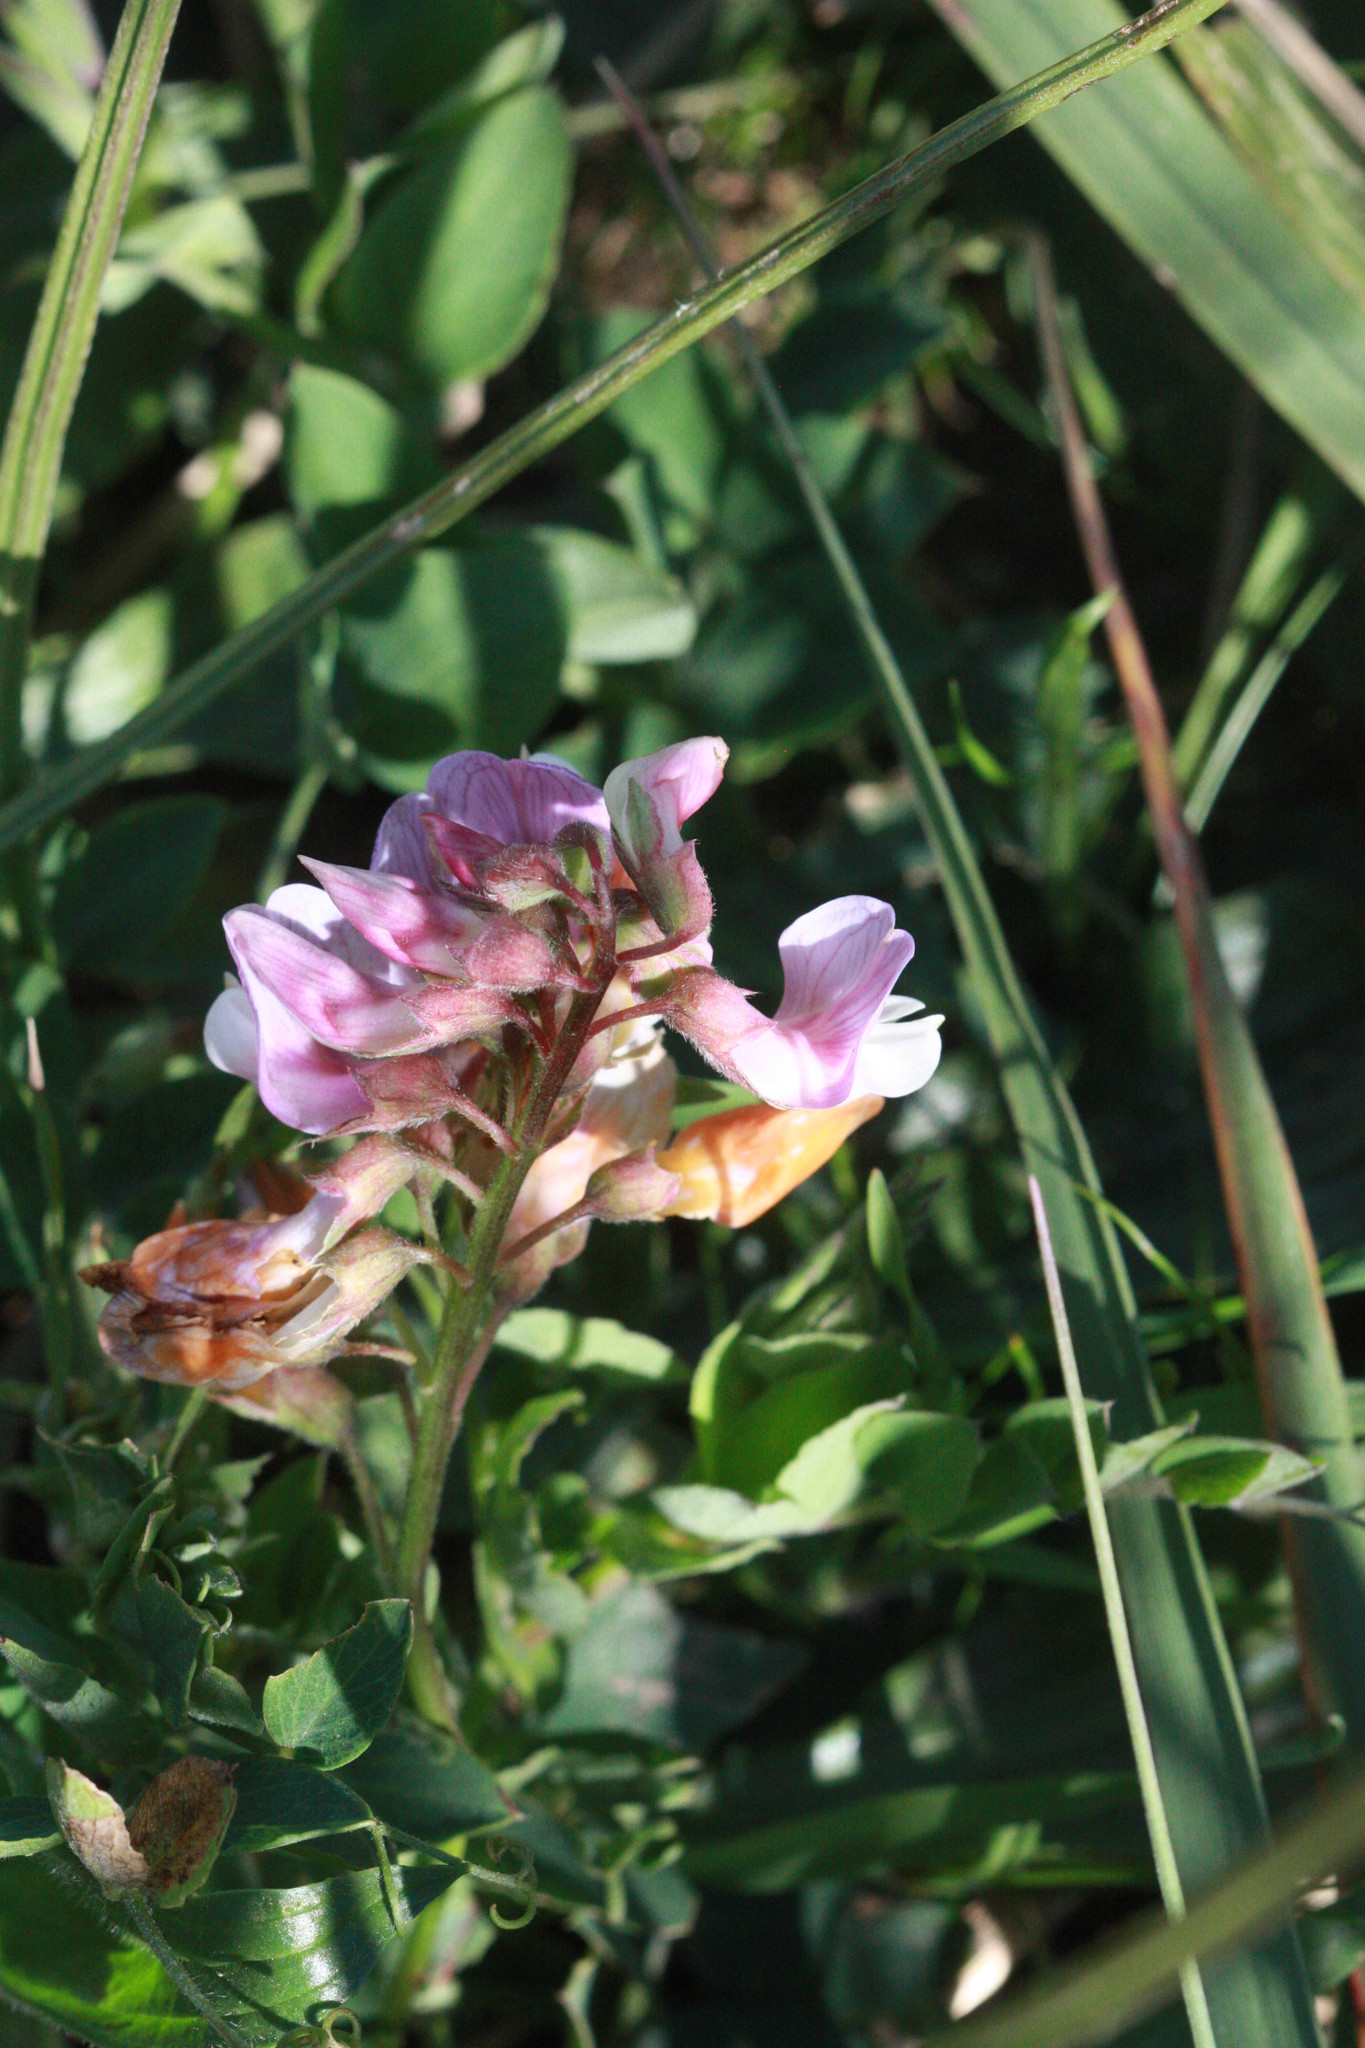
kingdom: Plantae
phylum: Tracheophyta
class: Magnoliopsida
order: Fabales
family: Fabaceae
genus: Lathyrus
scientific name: Lathyrus vestitus
